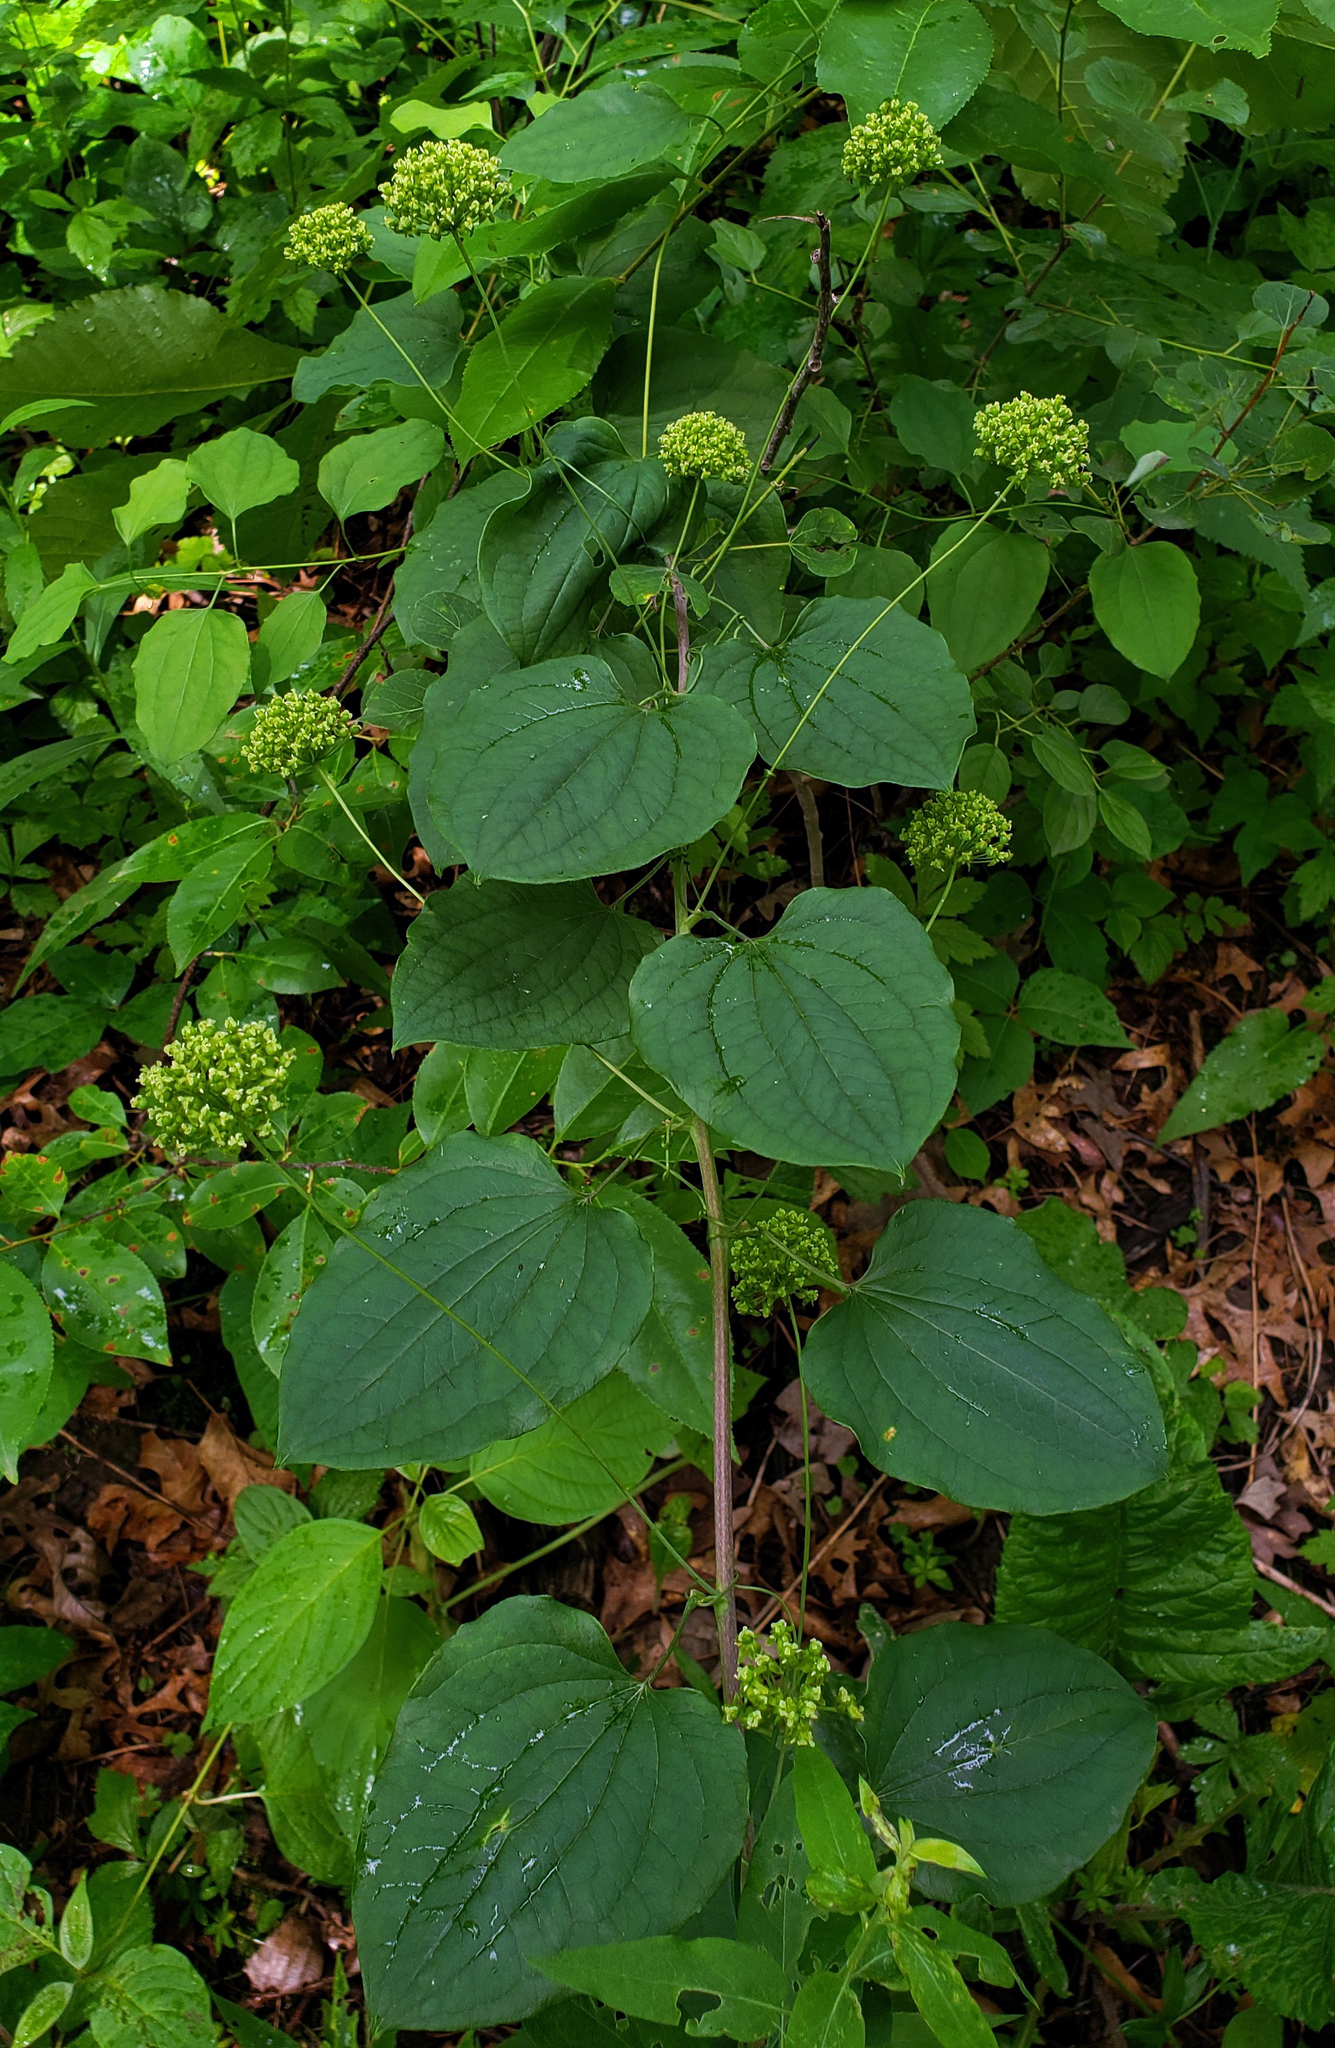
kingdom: Plantae
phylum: Tracheophyta
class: Liliopsida
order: Liliales
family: Smilacaceae
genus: Smilax
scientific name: Smilax lasioneura
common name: Blue ridge carrionflower
